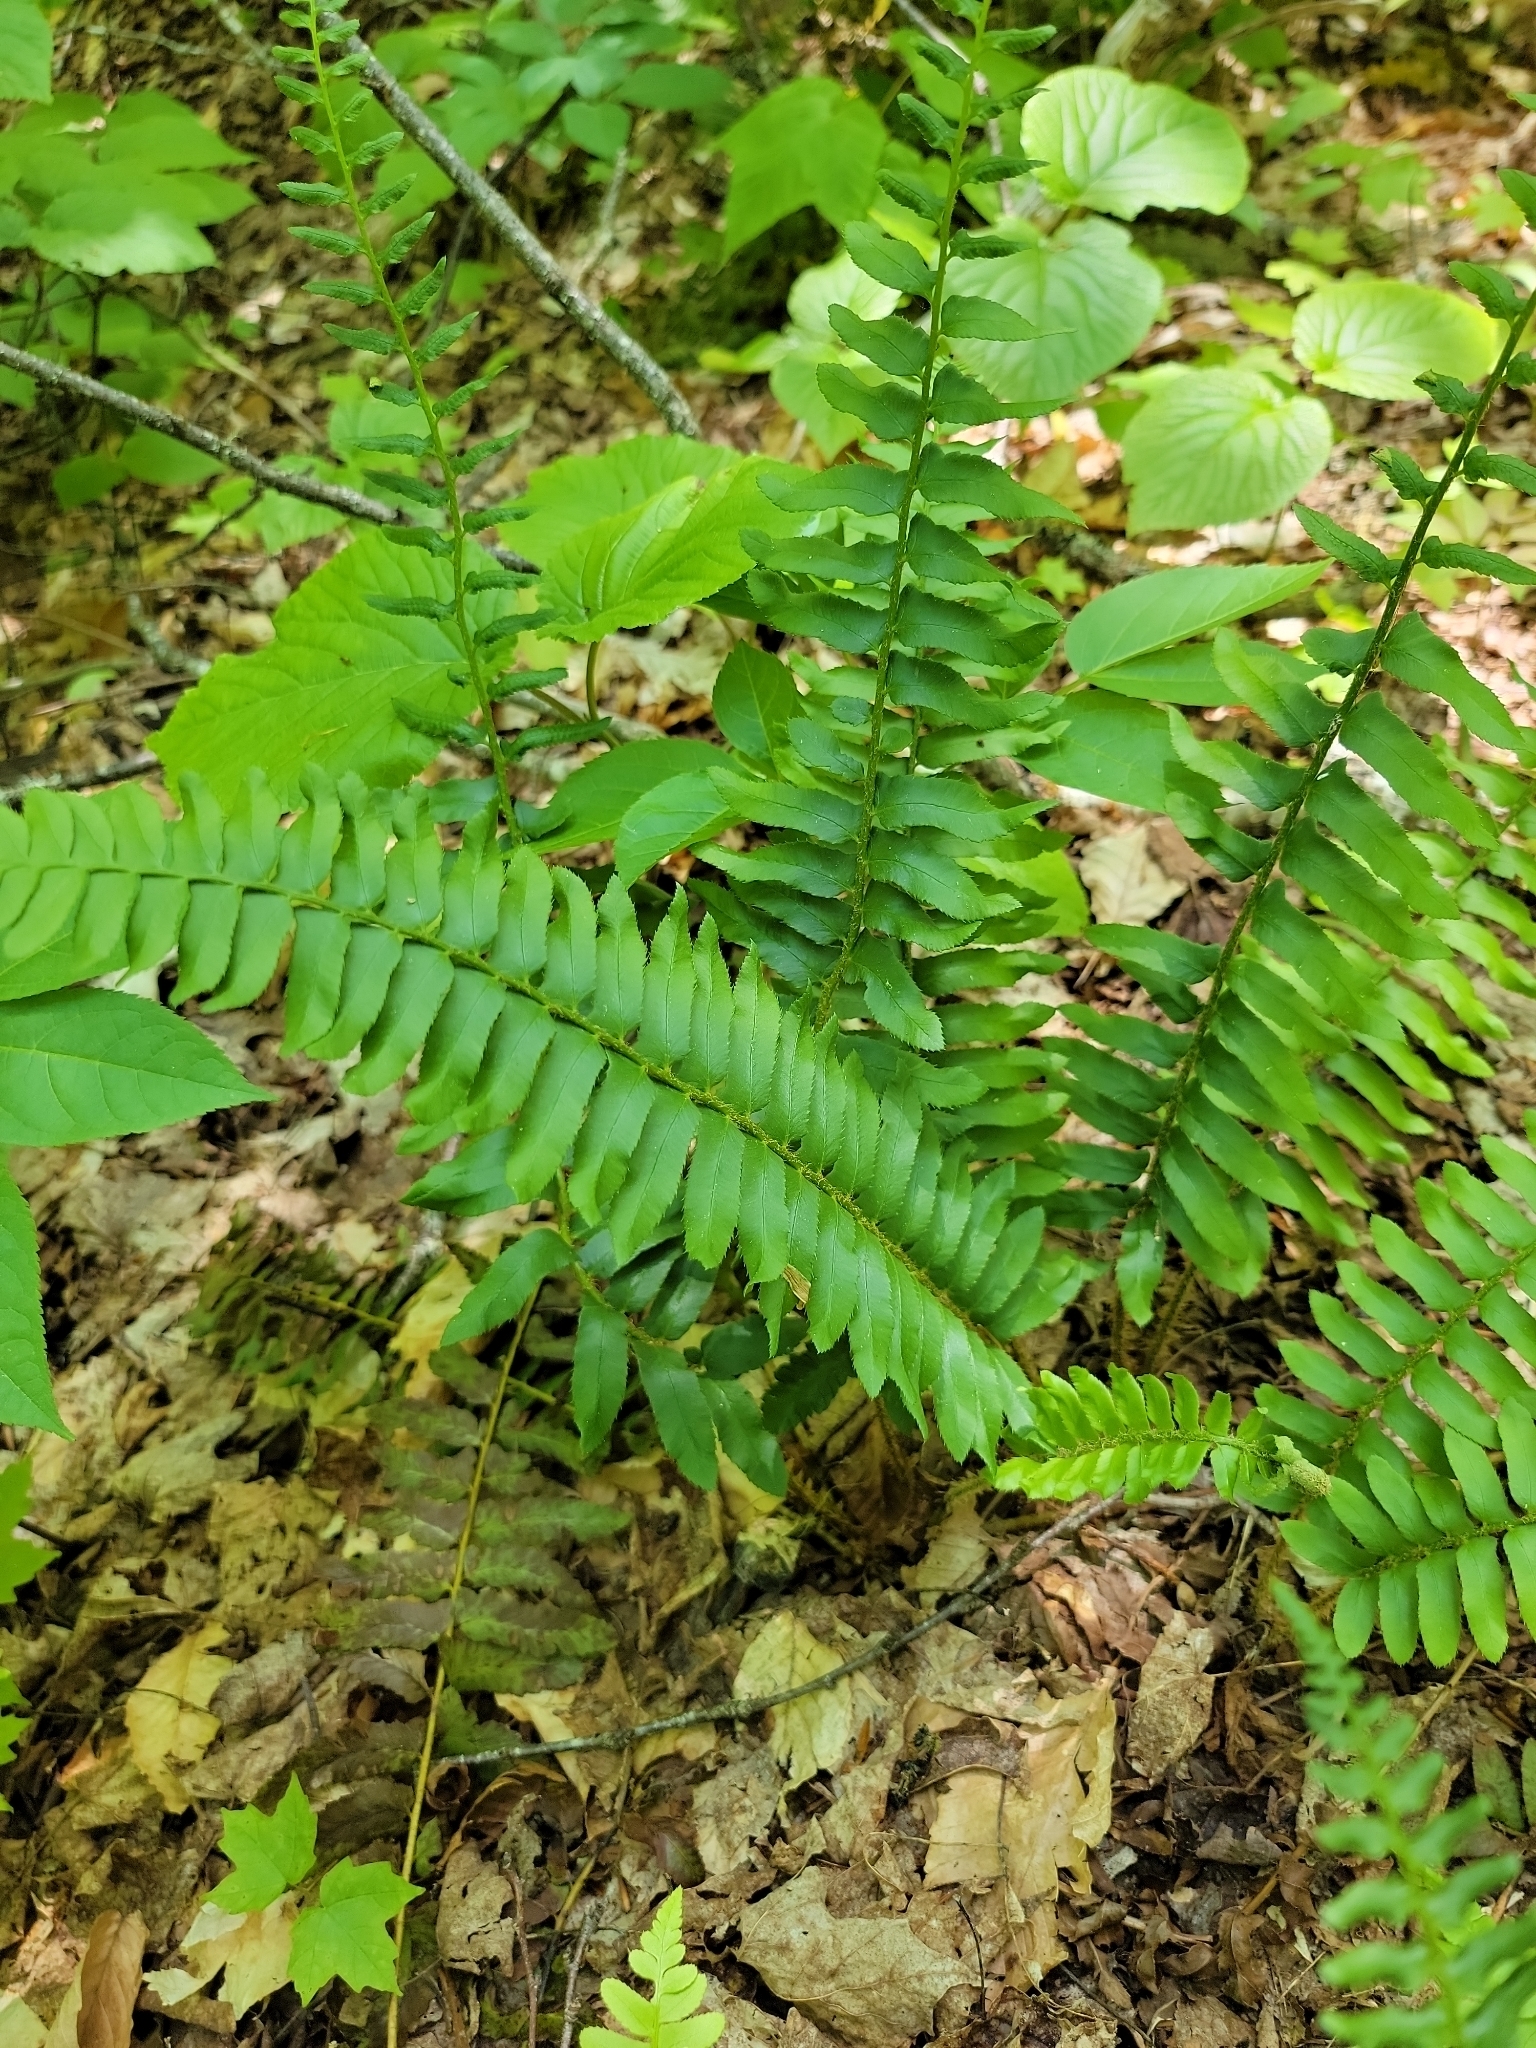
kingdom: Plantae
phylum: Tracheophyta
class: Polypodiopsida
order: Polypodiales
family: Dryopteridaceae
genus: Polystichum
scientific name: Polystichum acrostichoides
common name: Christmas fern
